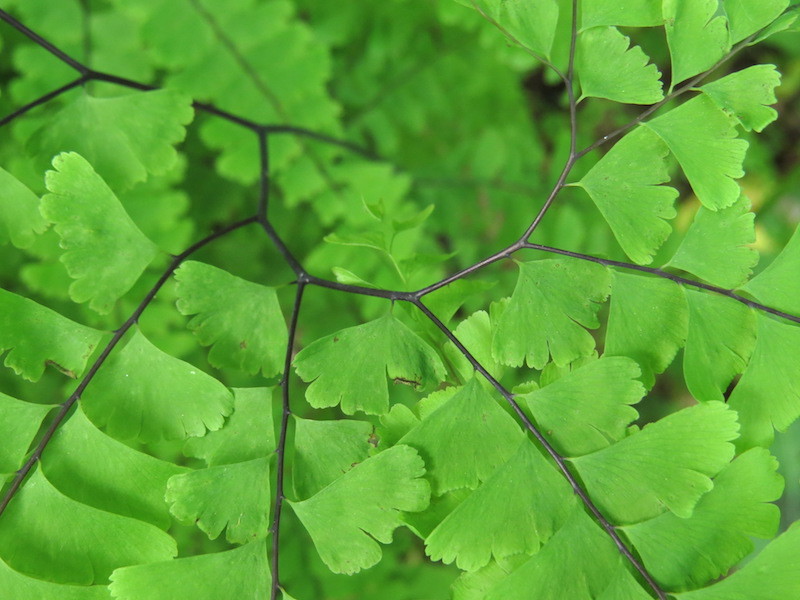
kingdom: Plantae
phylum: Tracheophyta
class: Polypodiopsida
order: Polypodiales
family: Pteridaceae
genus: Adiantum
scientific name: Adiantum pedatum
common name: Five-finger fern
